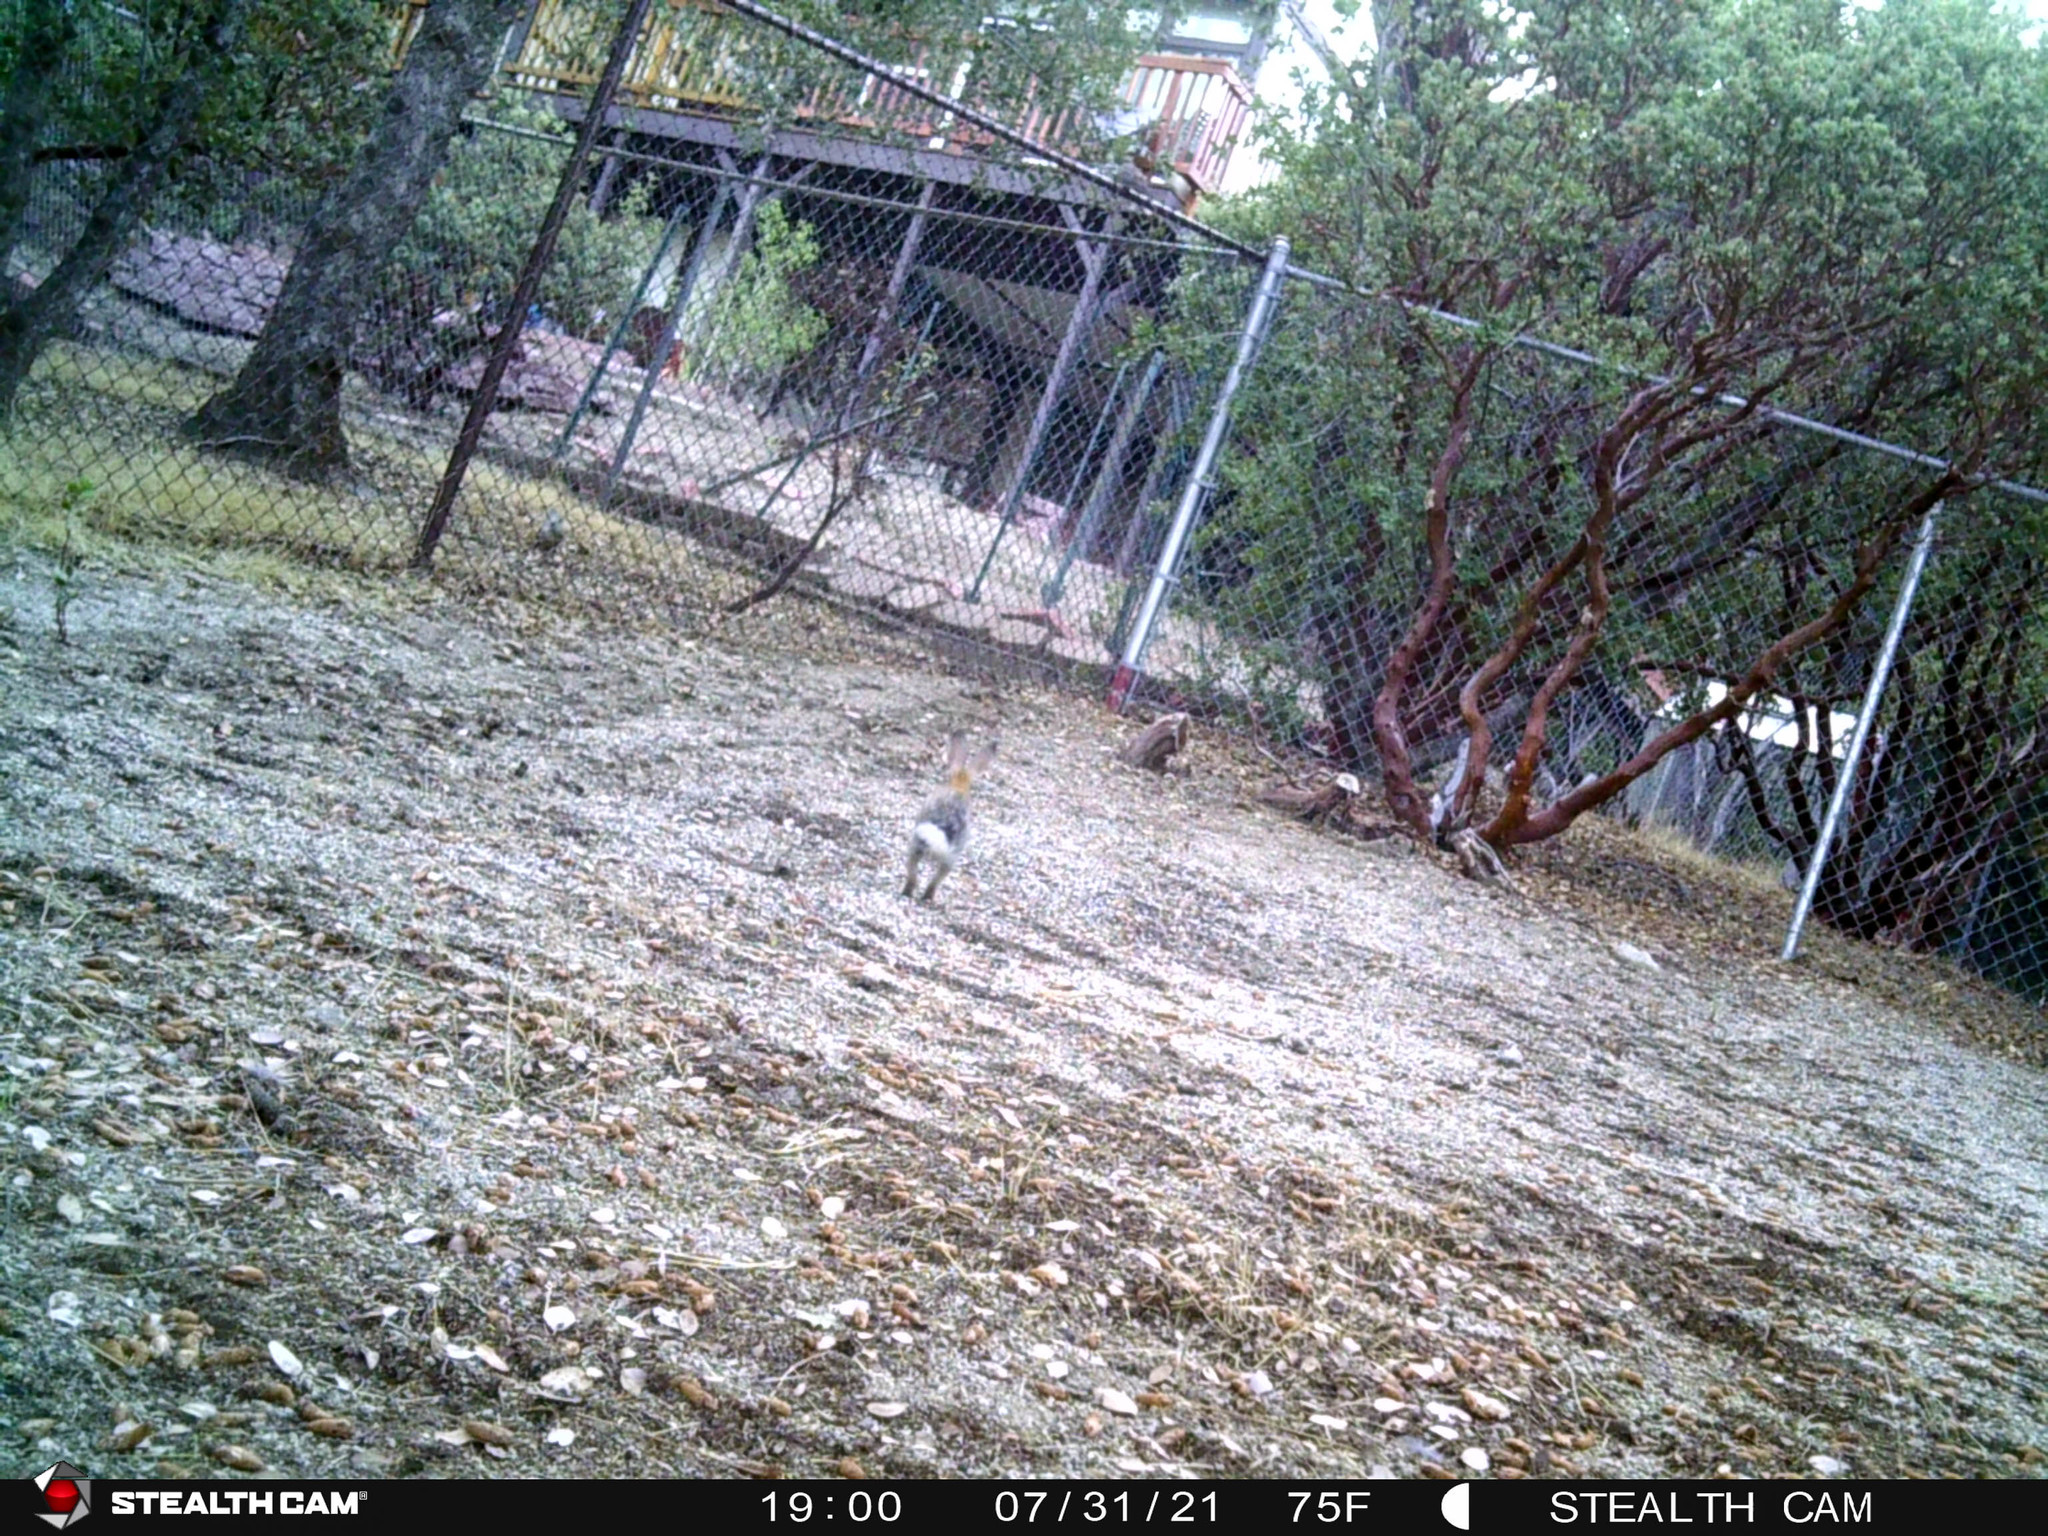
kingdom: Animalia
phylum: Chordata
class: Mammalia
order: Lagomorpha
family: Leporidae
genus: Sylvilagus
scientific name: Sylvilagus audubonii
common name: Desert cottontail
